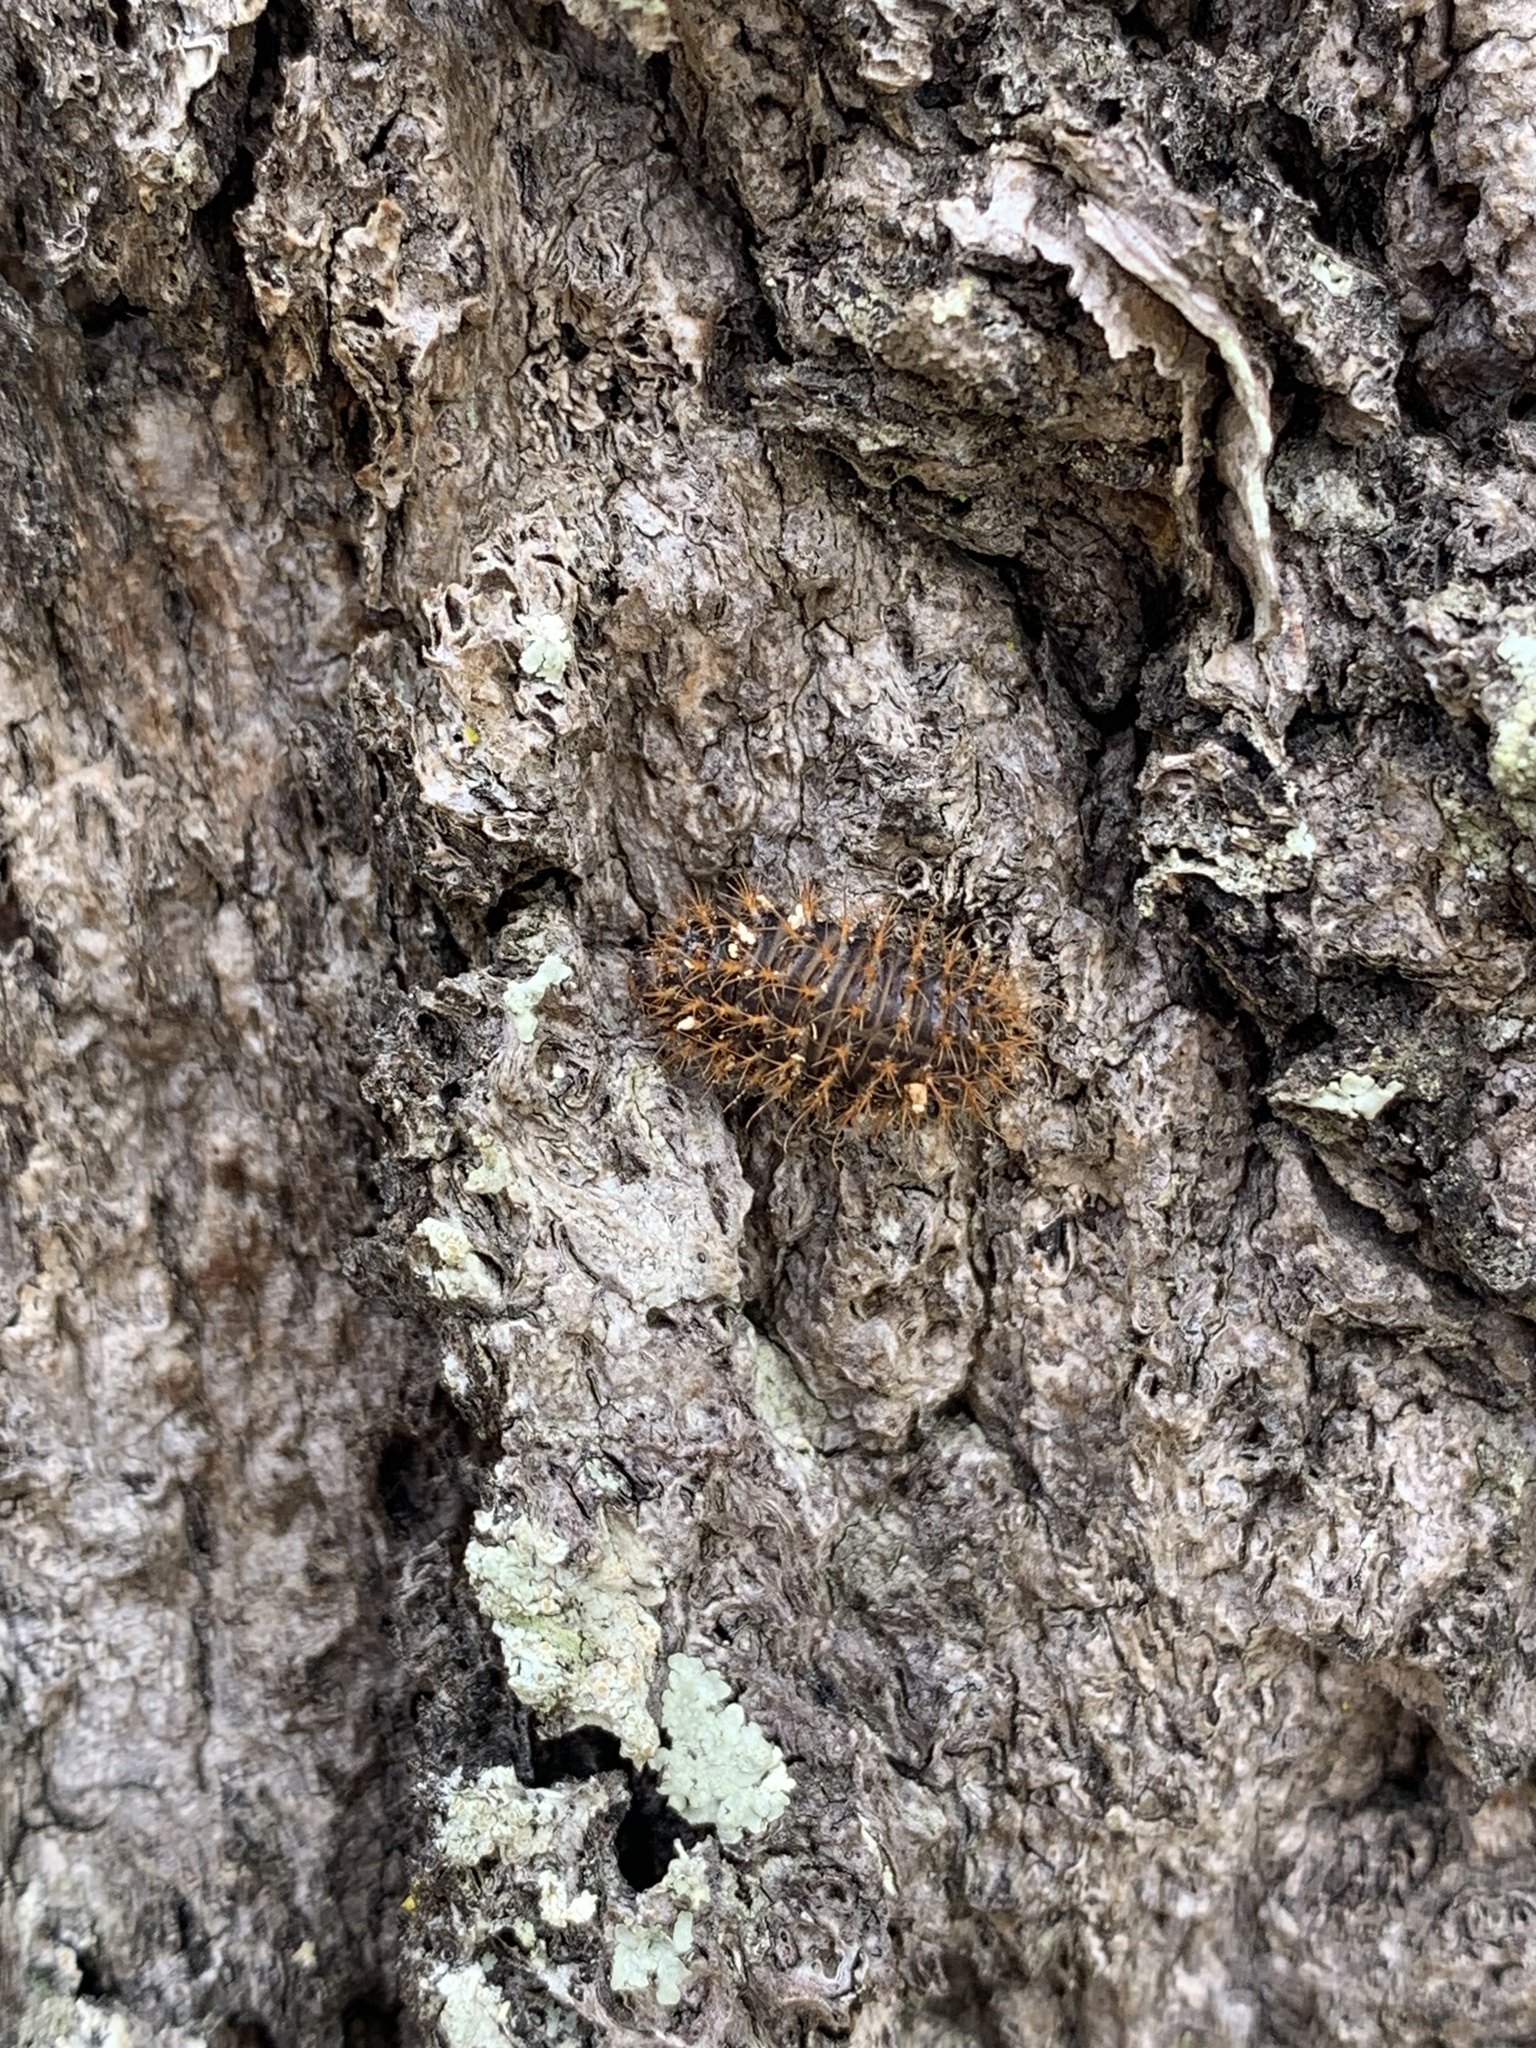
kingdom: Animalia
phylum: Arthropoda
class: Insecta
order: Coleoptera
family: Erotylidae
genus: Aegithus
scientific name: Aegithus
